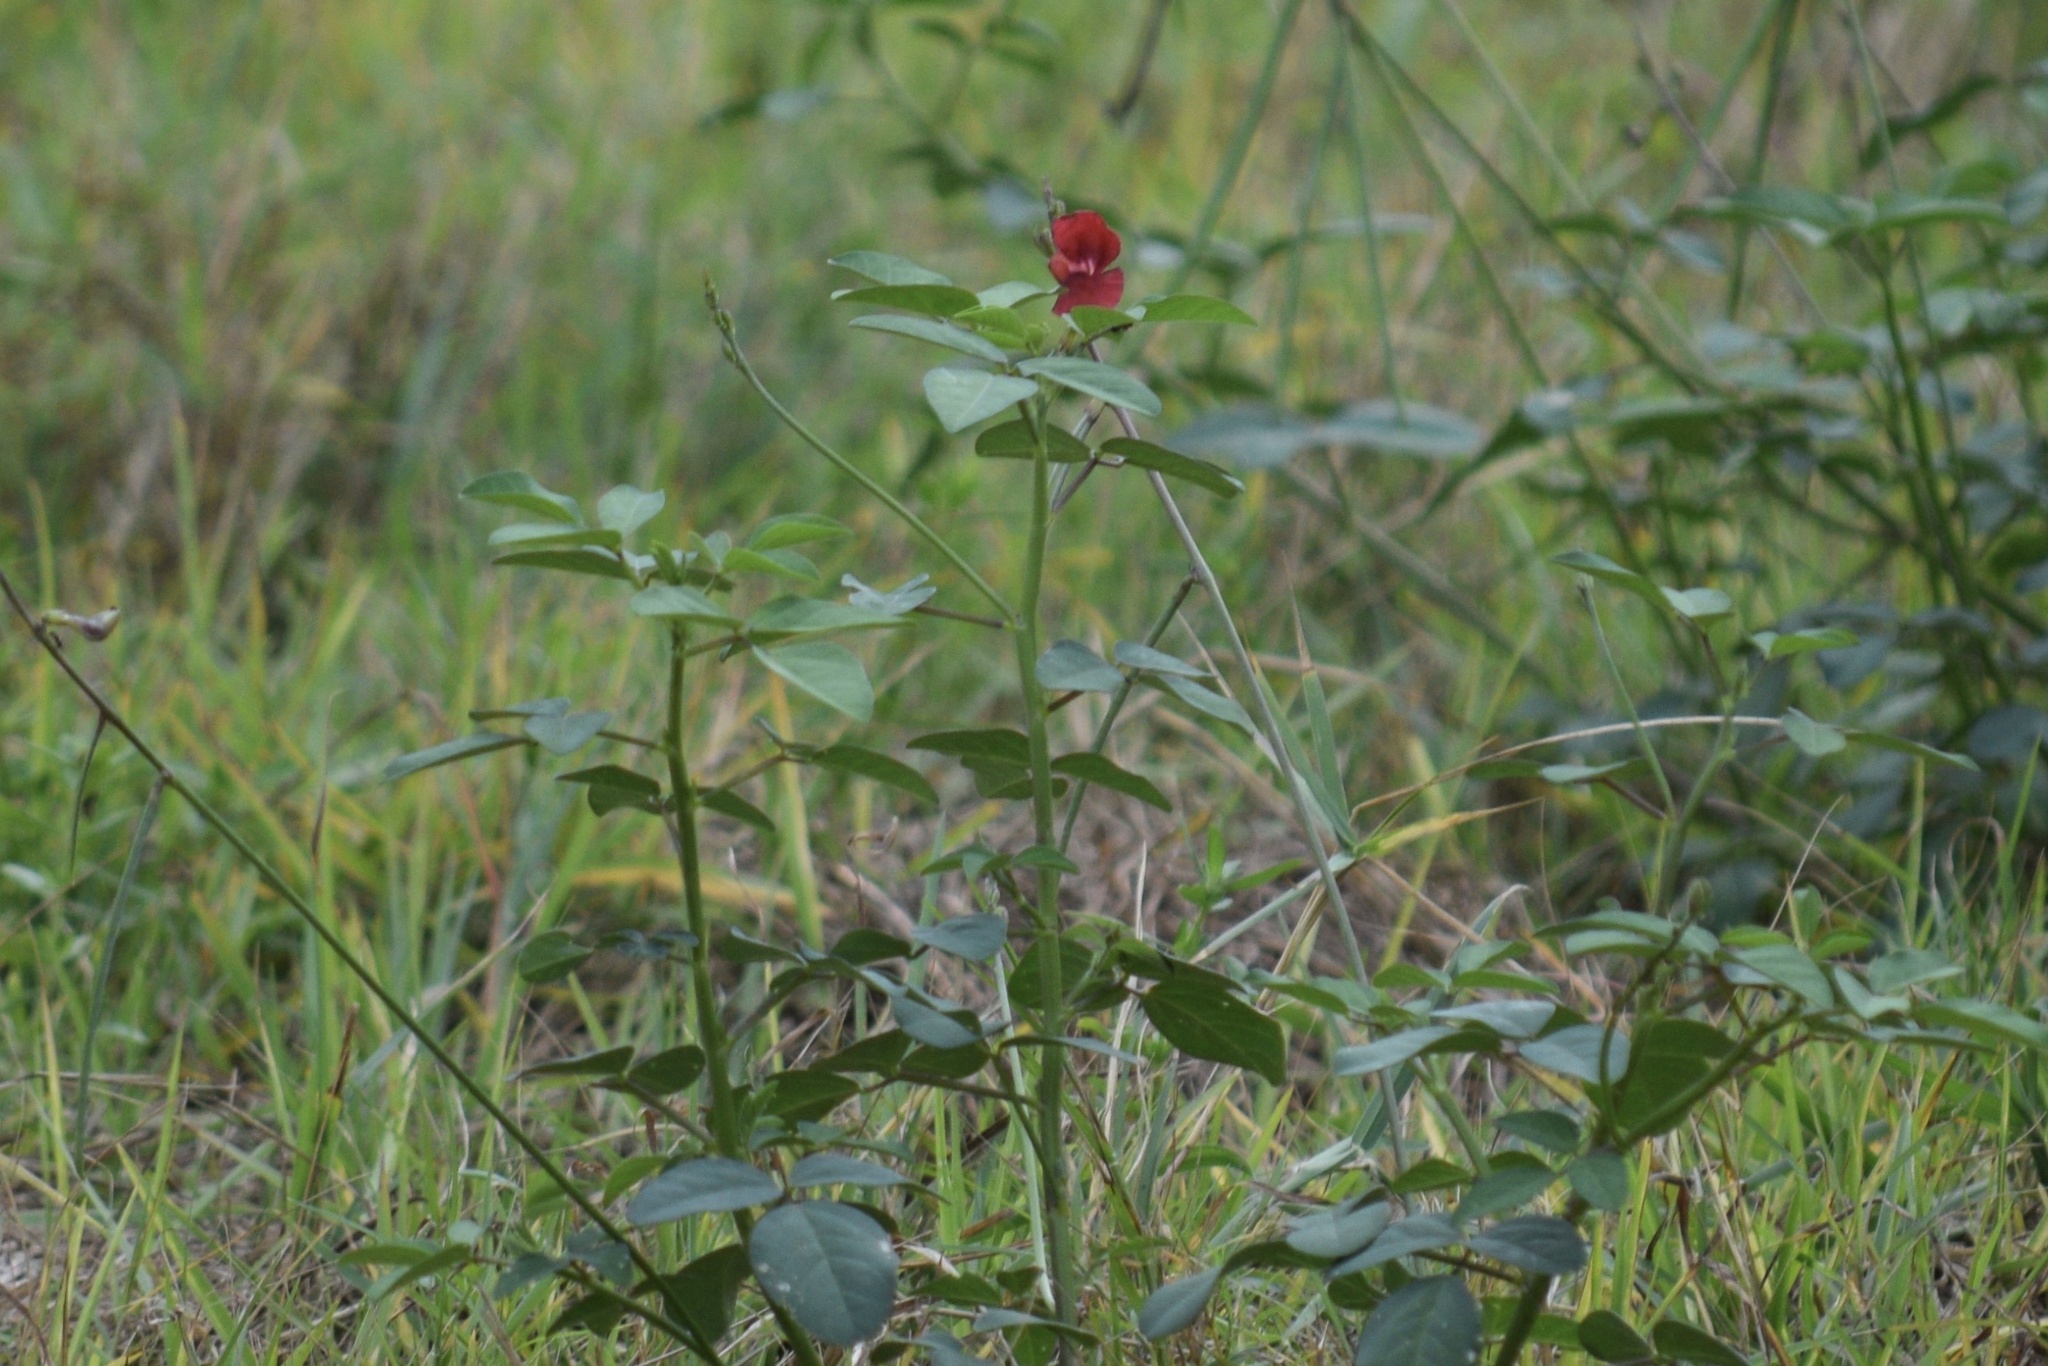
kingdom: Plantae
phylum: Tracheophyta
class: Magnoliopsida
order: Fabales
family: Fabaceae
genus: Macroptilium
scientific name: Macroptilium lathyroides
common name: Wild bushbean
